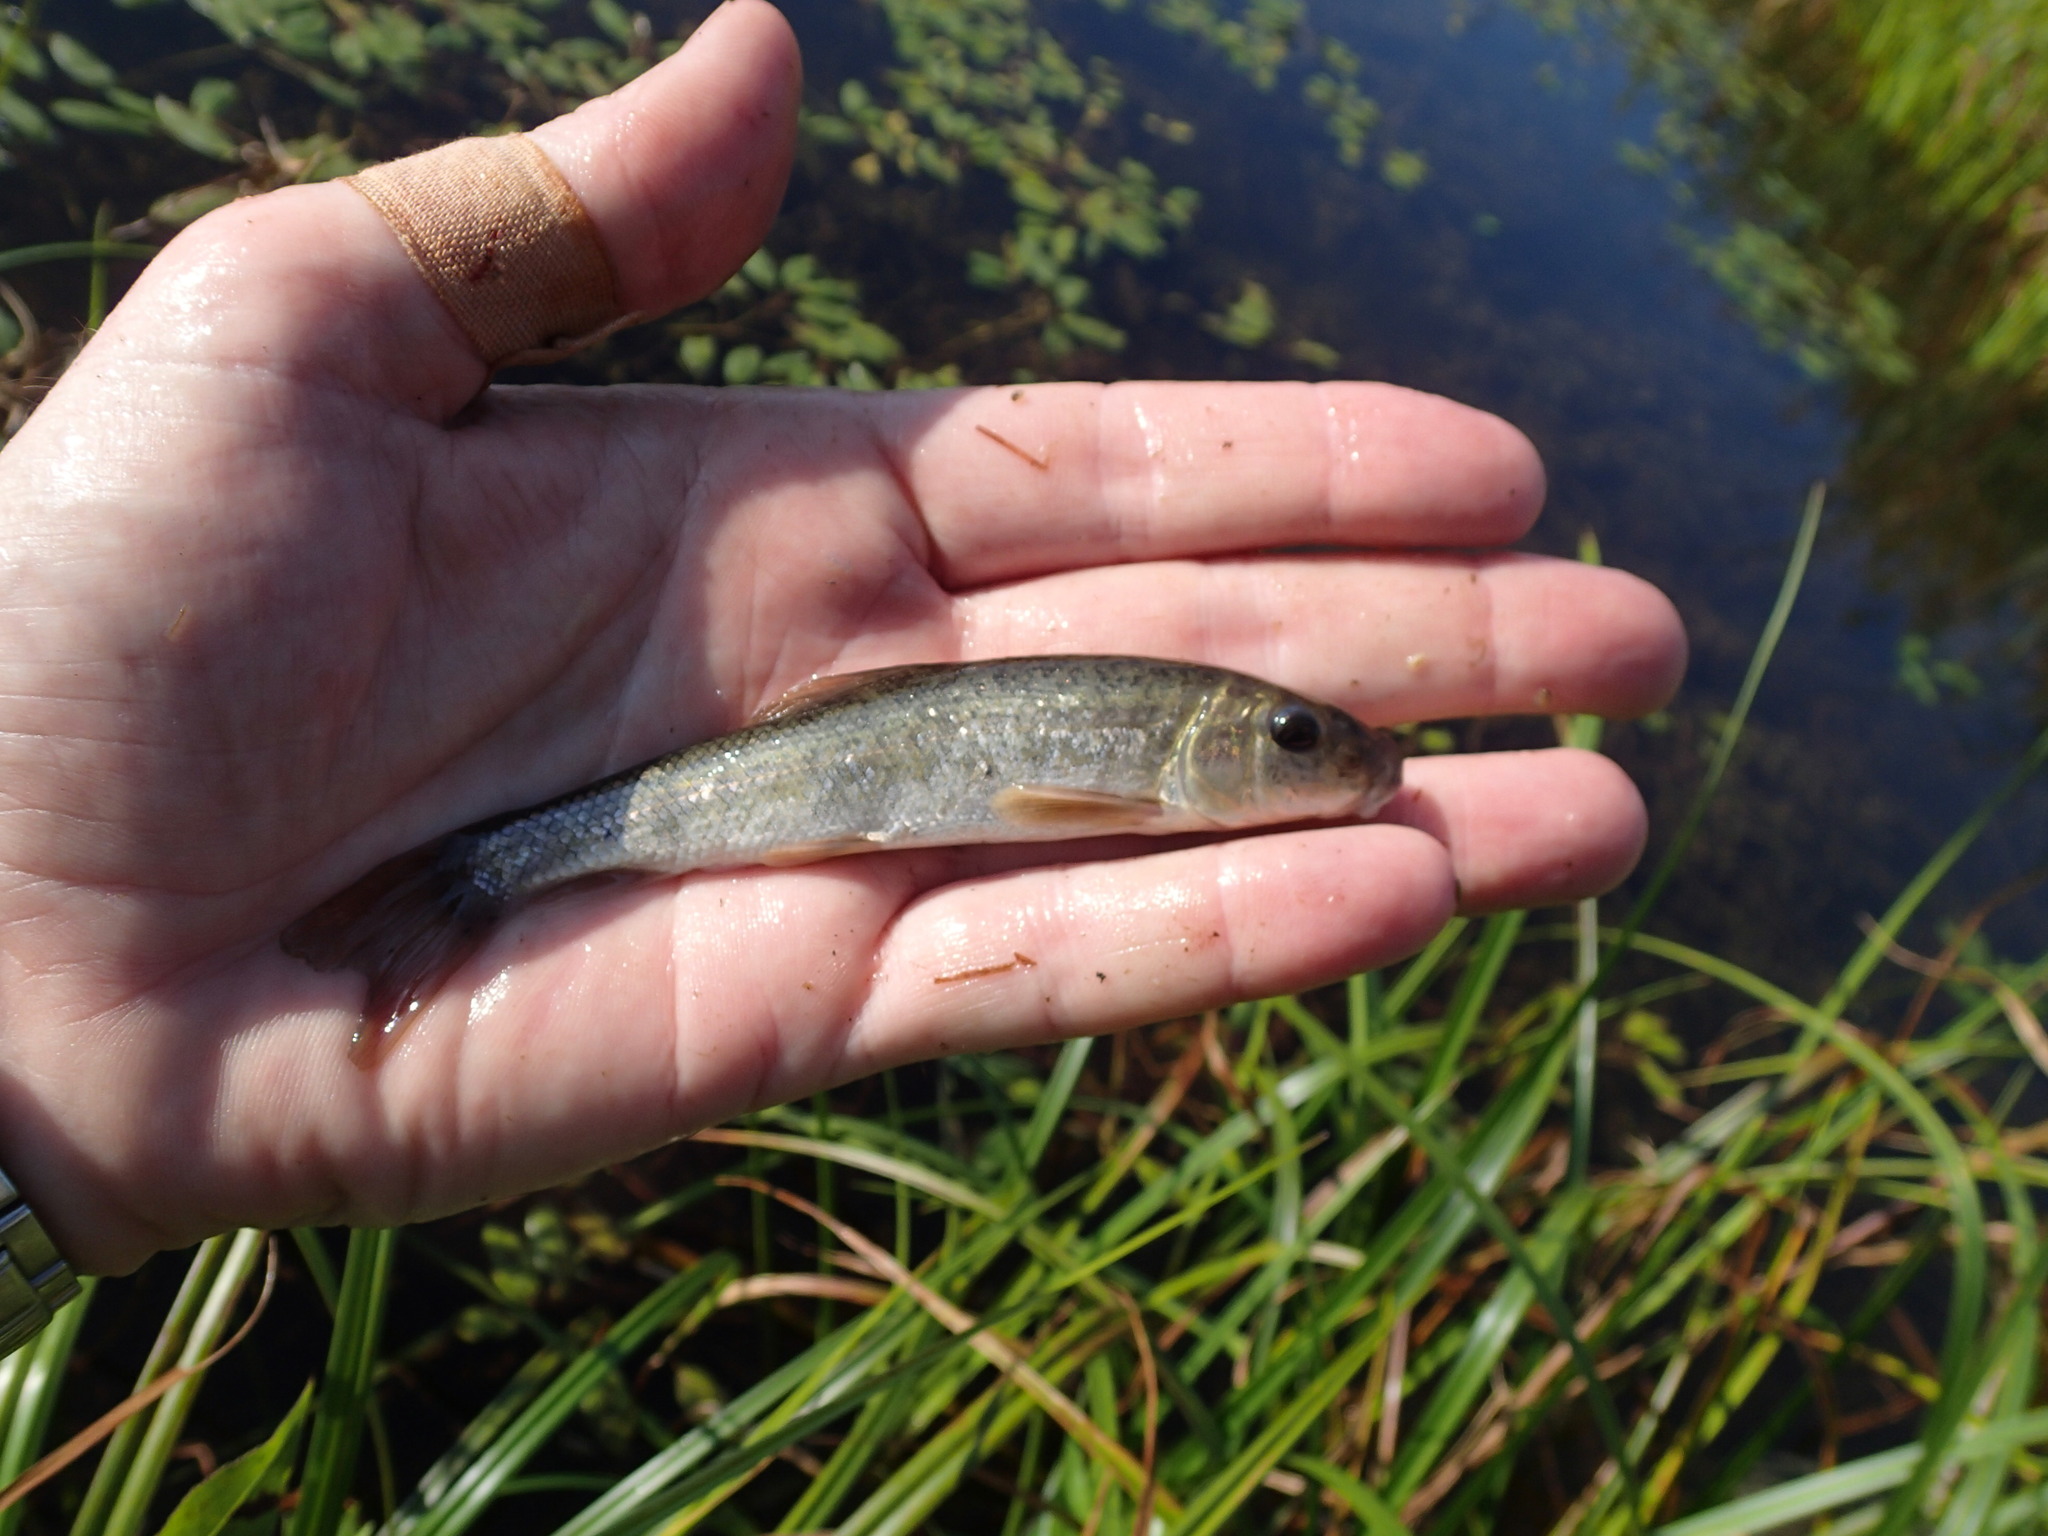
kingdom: Animalia
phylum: Chordata
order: Cypriniformes
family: Catostomidae
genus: Catostomus
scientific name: Catostomus commersonii
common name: White sucker
